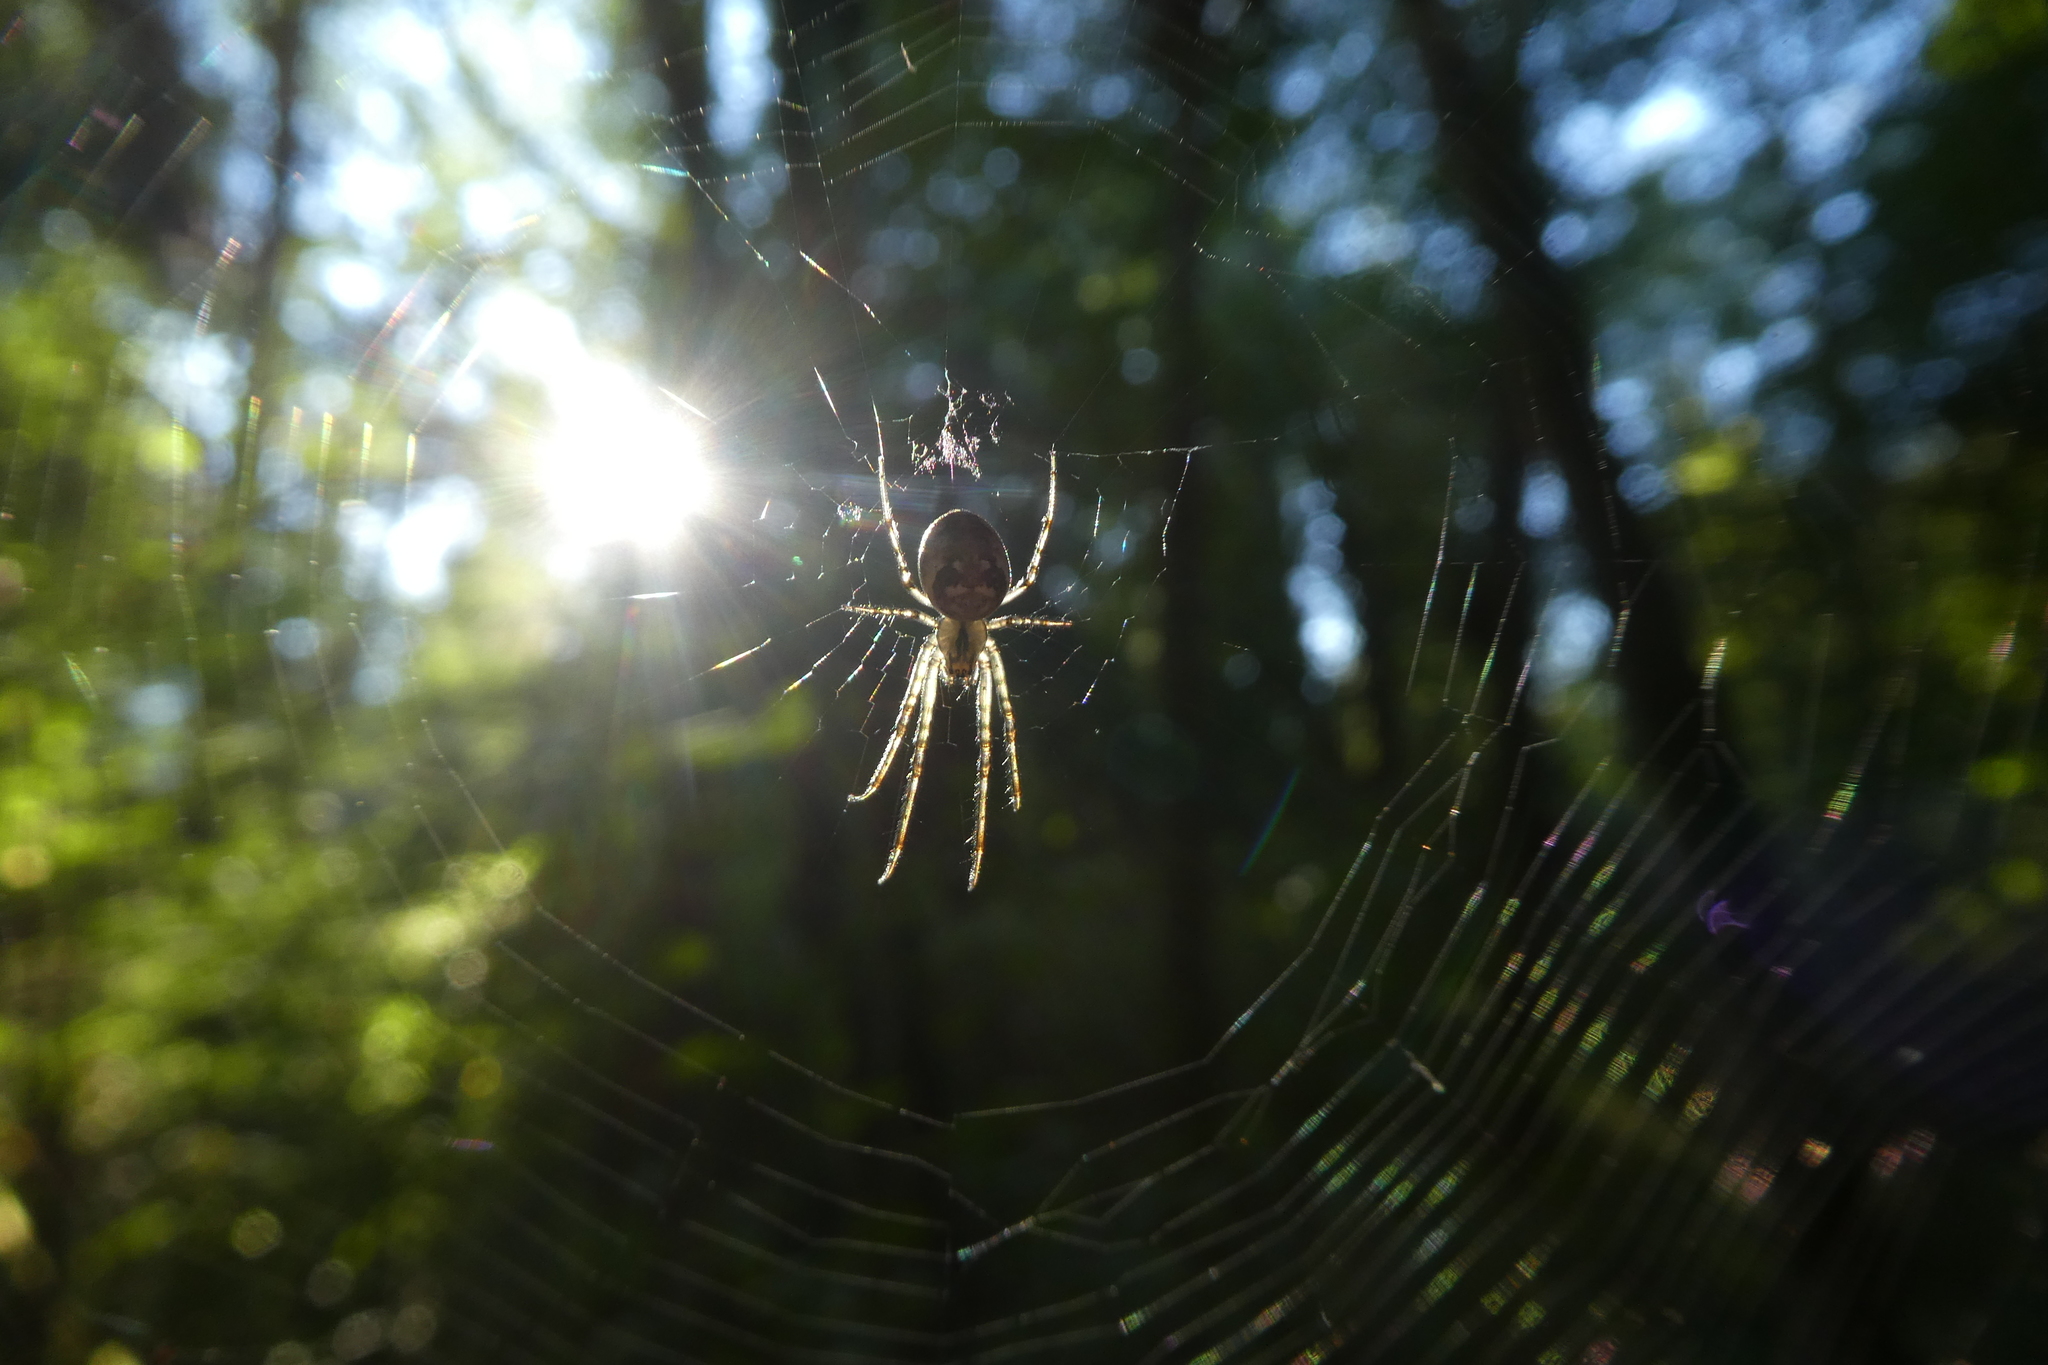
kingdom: Animalia
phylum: Arthropoda
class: Arachnida
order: Araneae
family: Tetragnathidae
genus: Metellina
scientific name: Metellina
